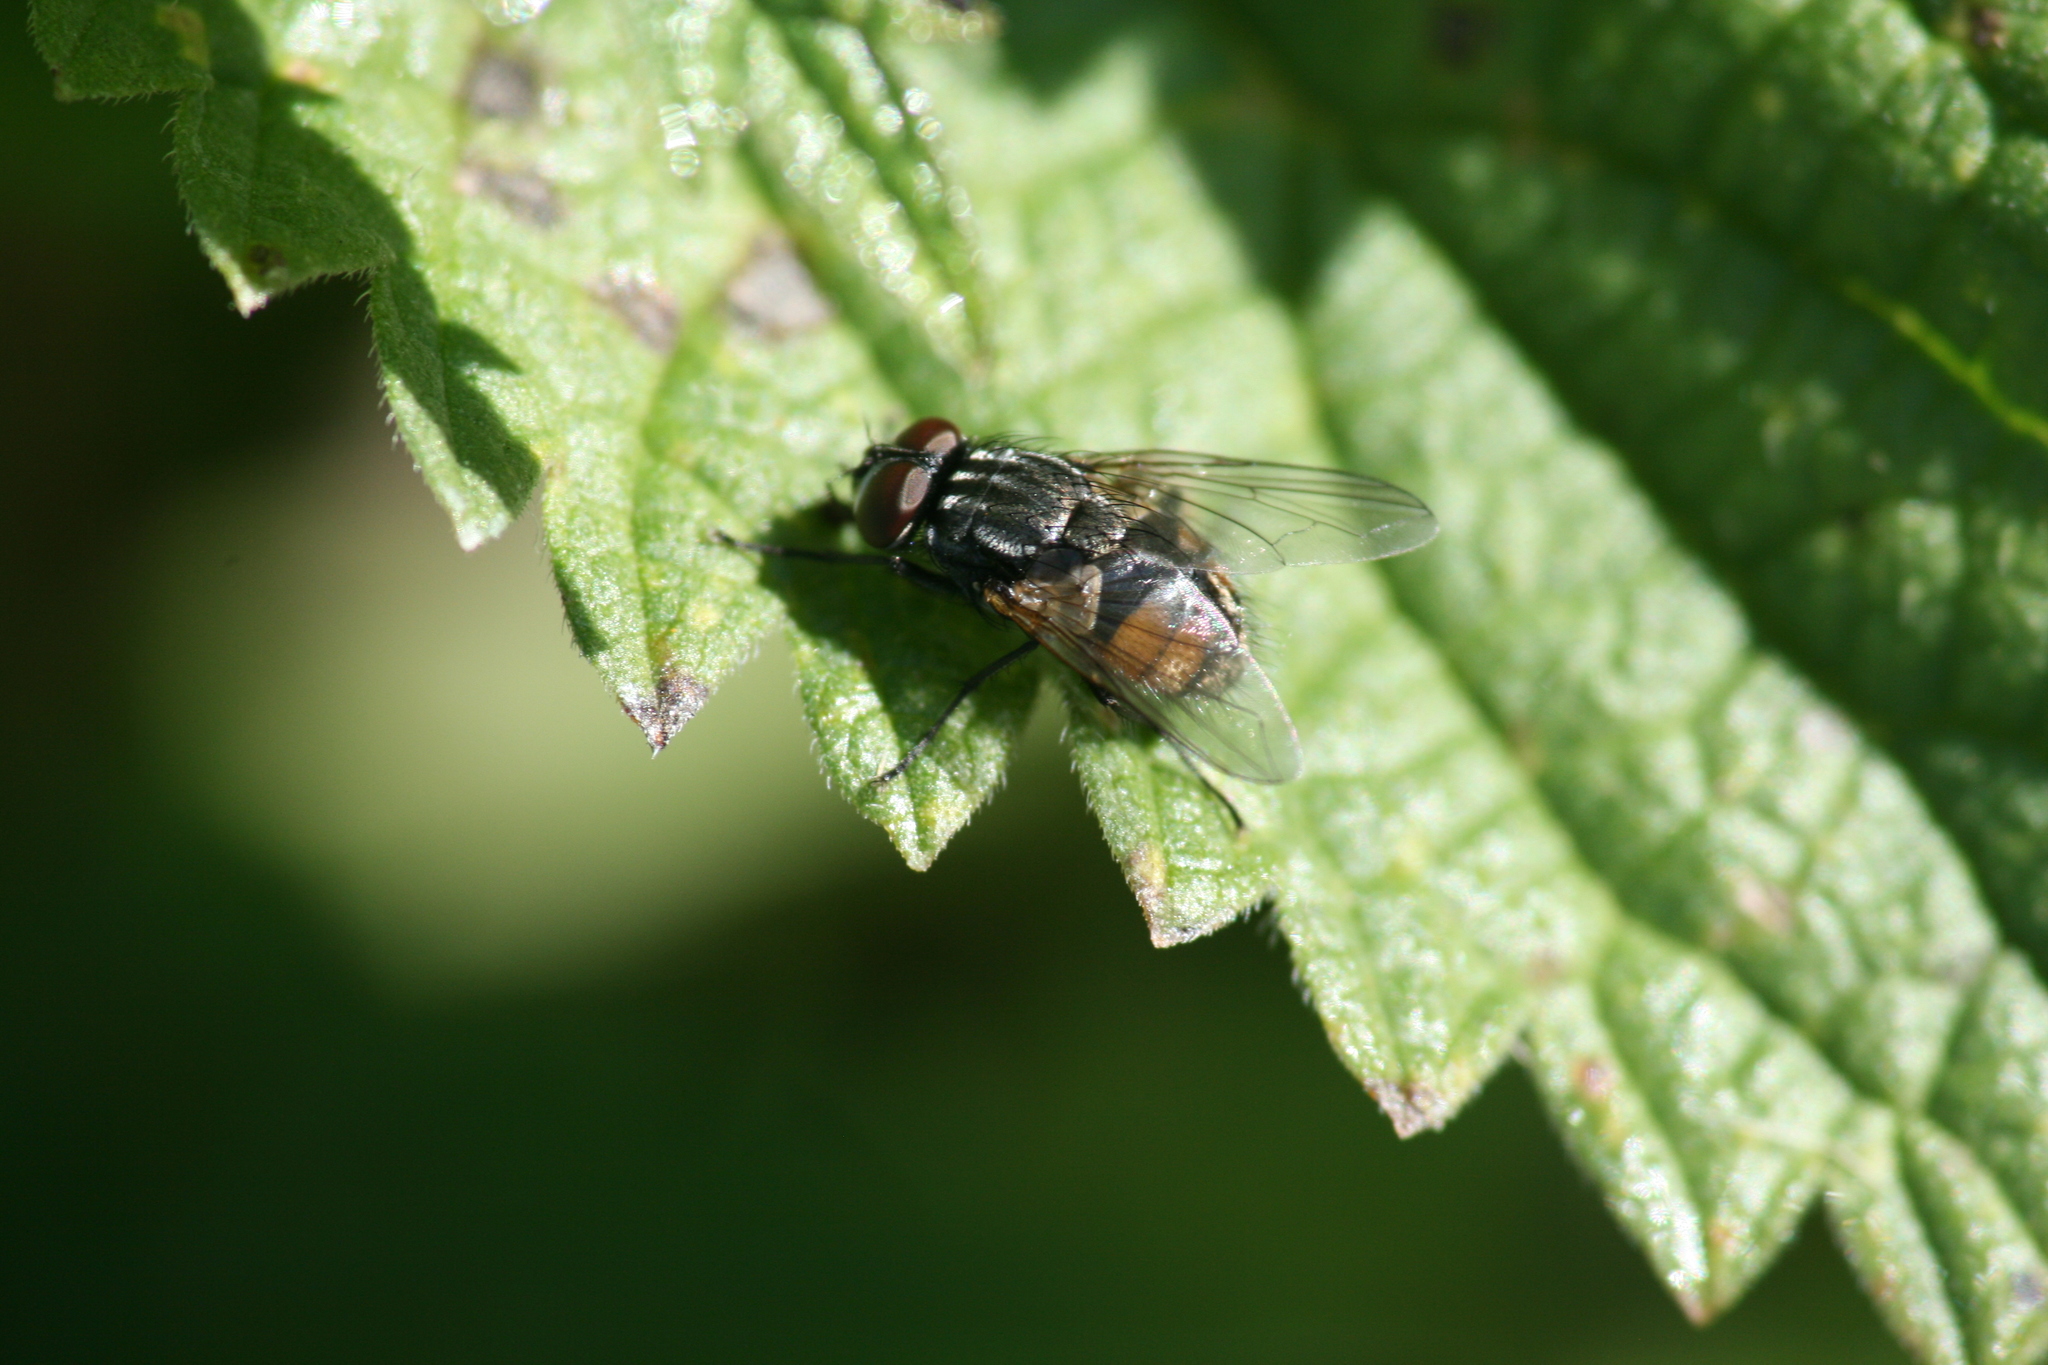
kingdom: Animalia
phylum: Arthropoda
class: Insecta
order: Diptera
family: Muscidae
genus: Musca
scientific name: Musca autumnalis
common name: Face fly
